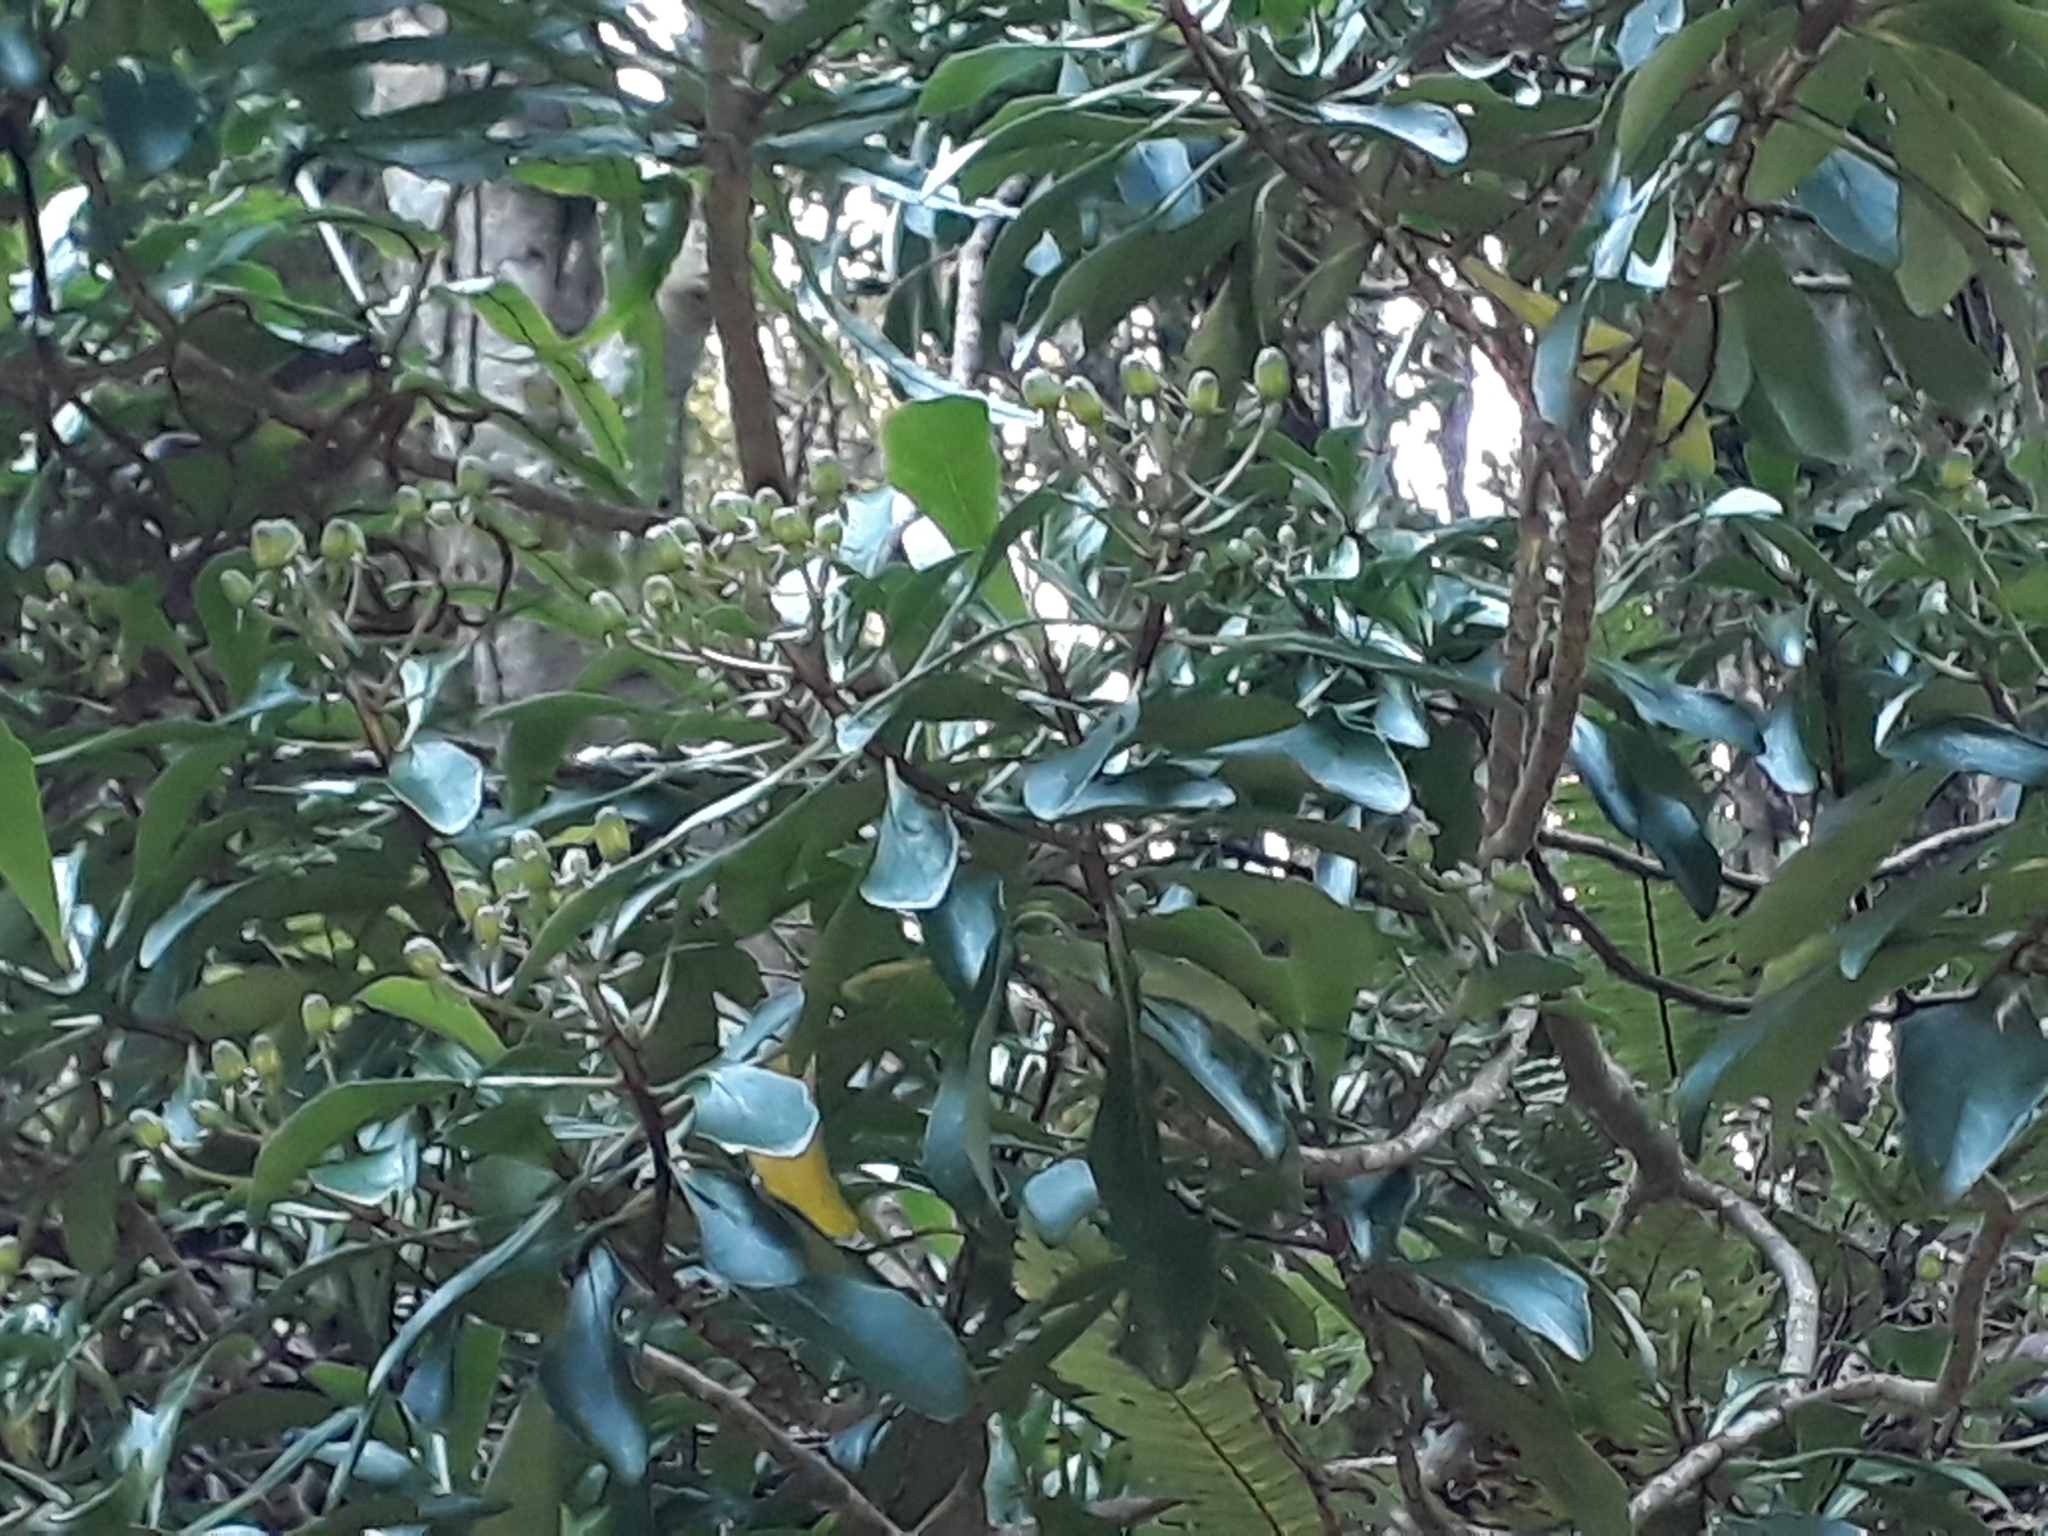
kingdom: Plantae
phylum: Tracheophyta
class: Magnoliopsida
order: Asterales
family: Asteraceae
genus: Brachyglottis
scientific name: Brachyglottis kirkii
